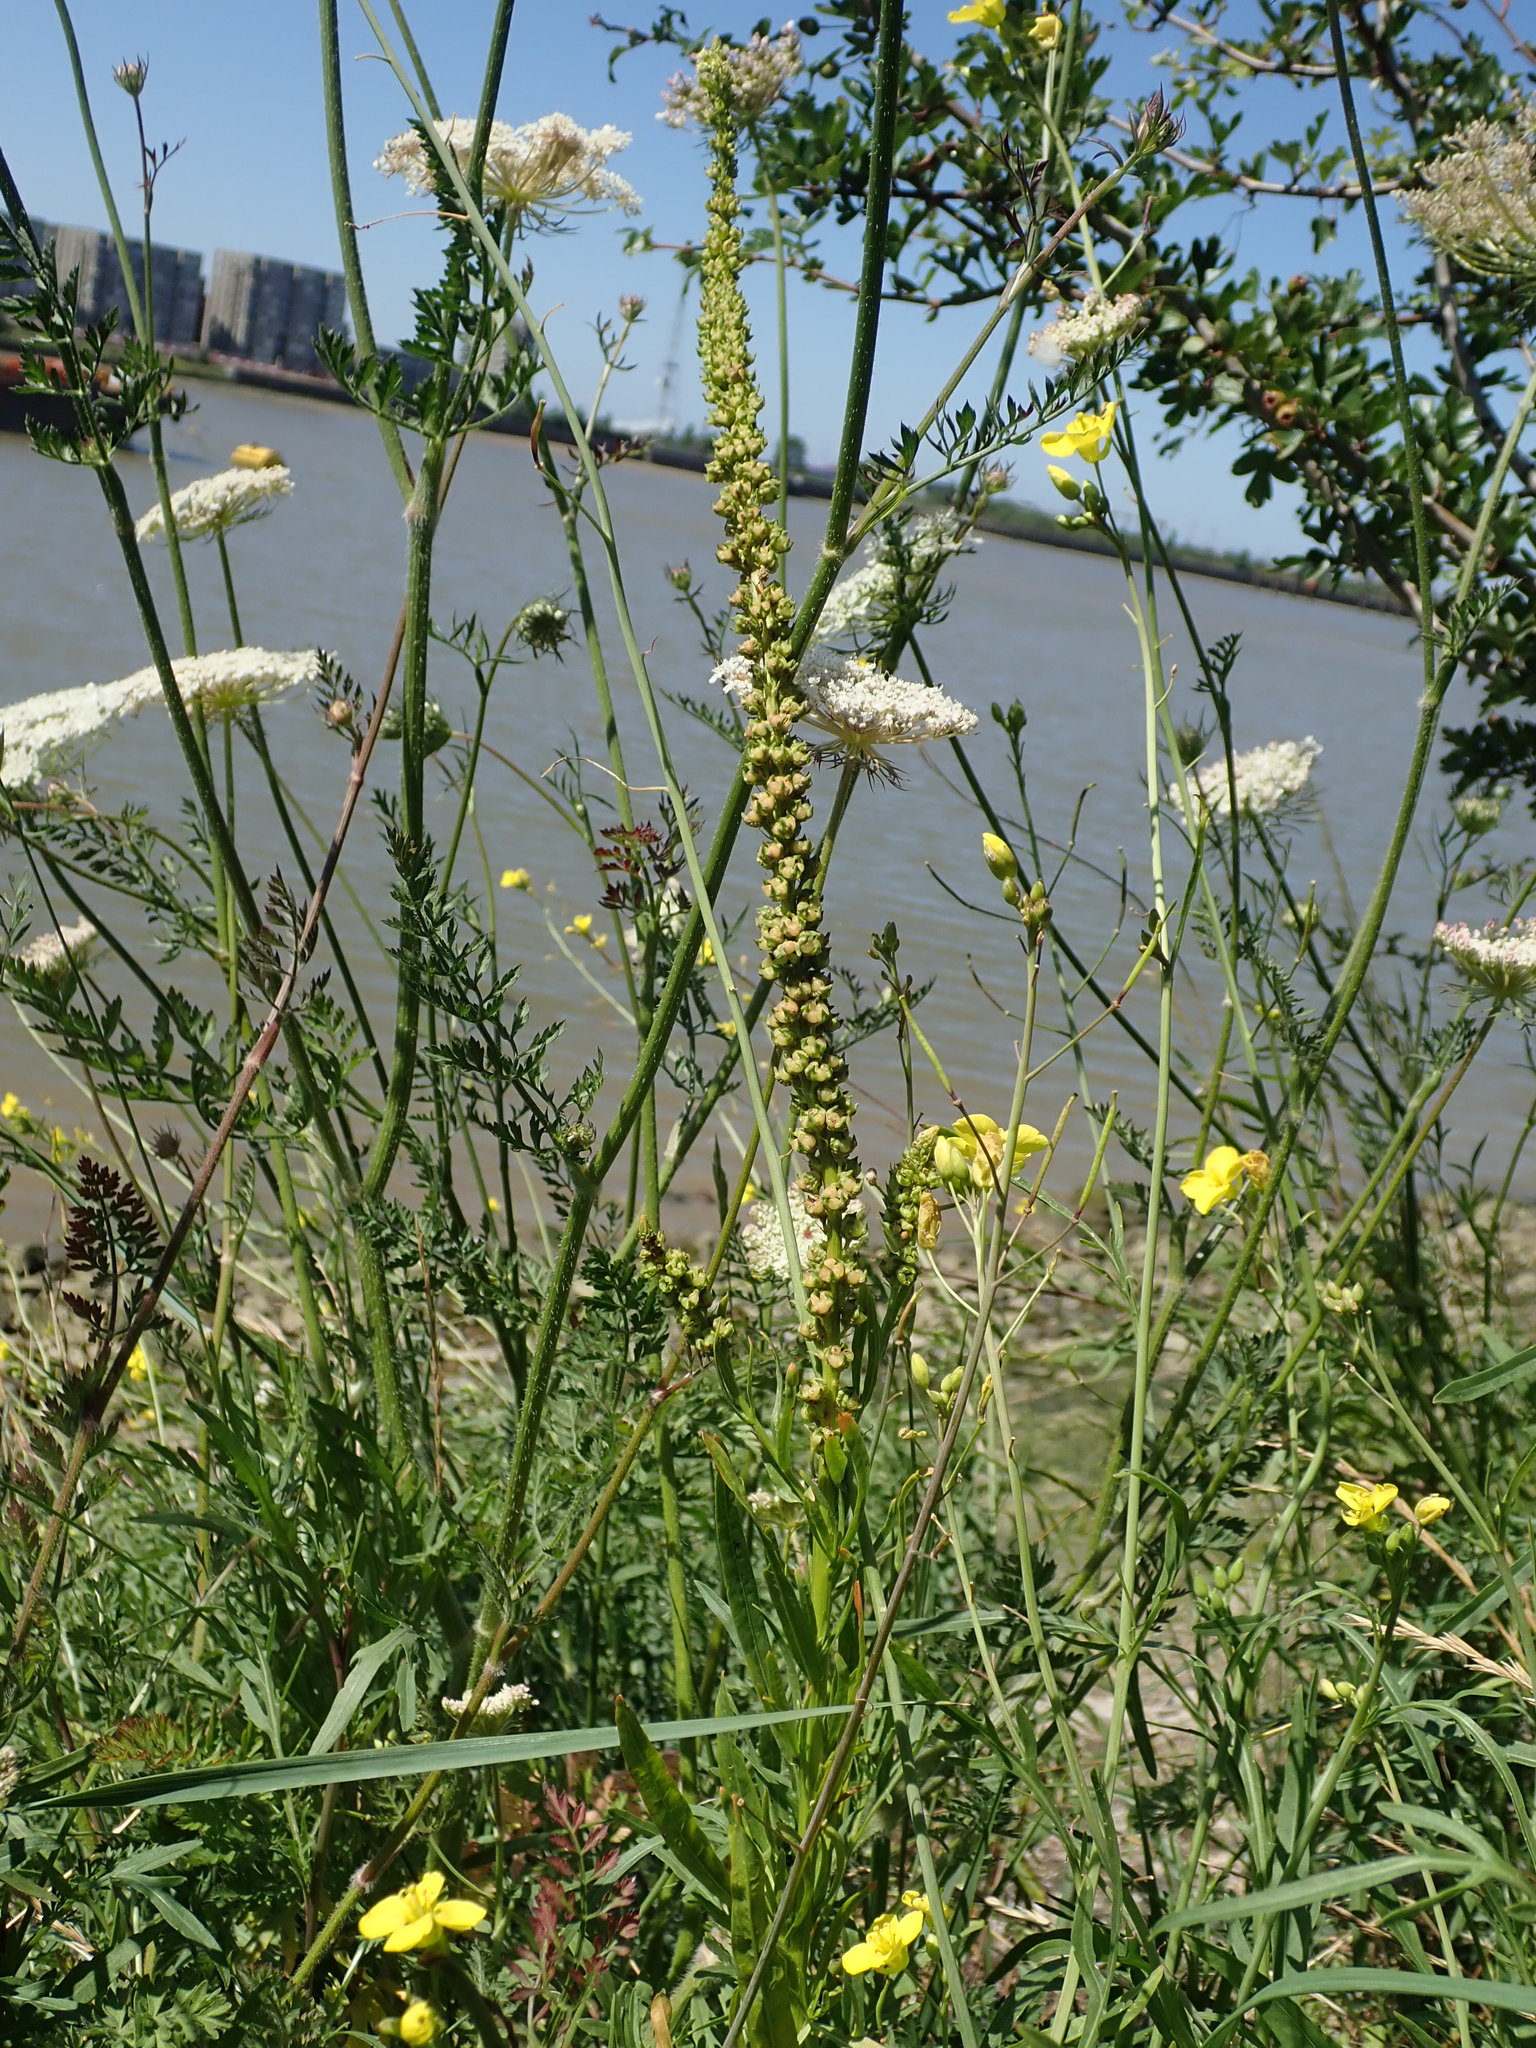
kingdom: Plantae
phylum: Tracheophyta
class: Magnoliopsida
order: Brassicales
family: Resedaceae
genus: Reseda
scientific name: Reseda luteola
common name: Weld
